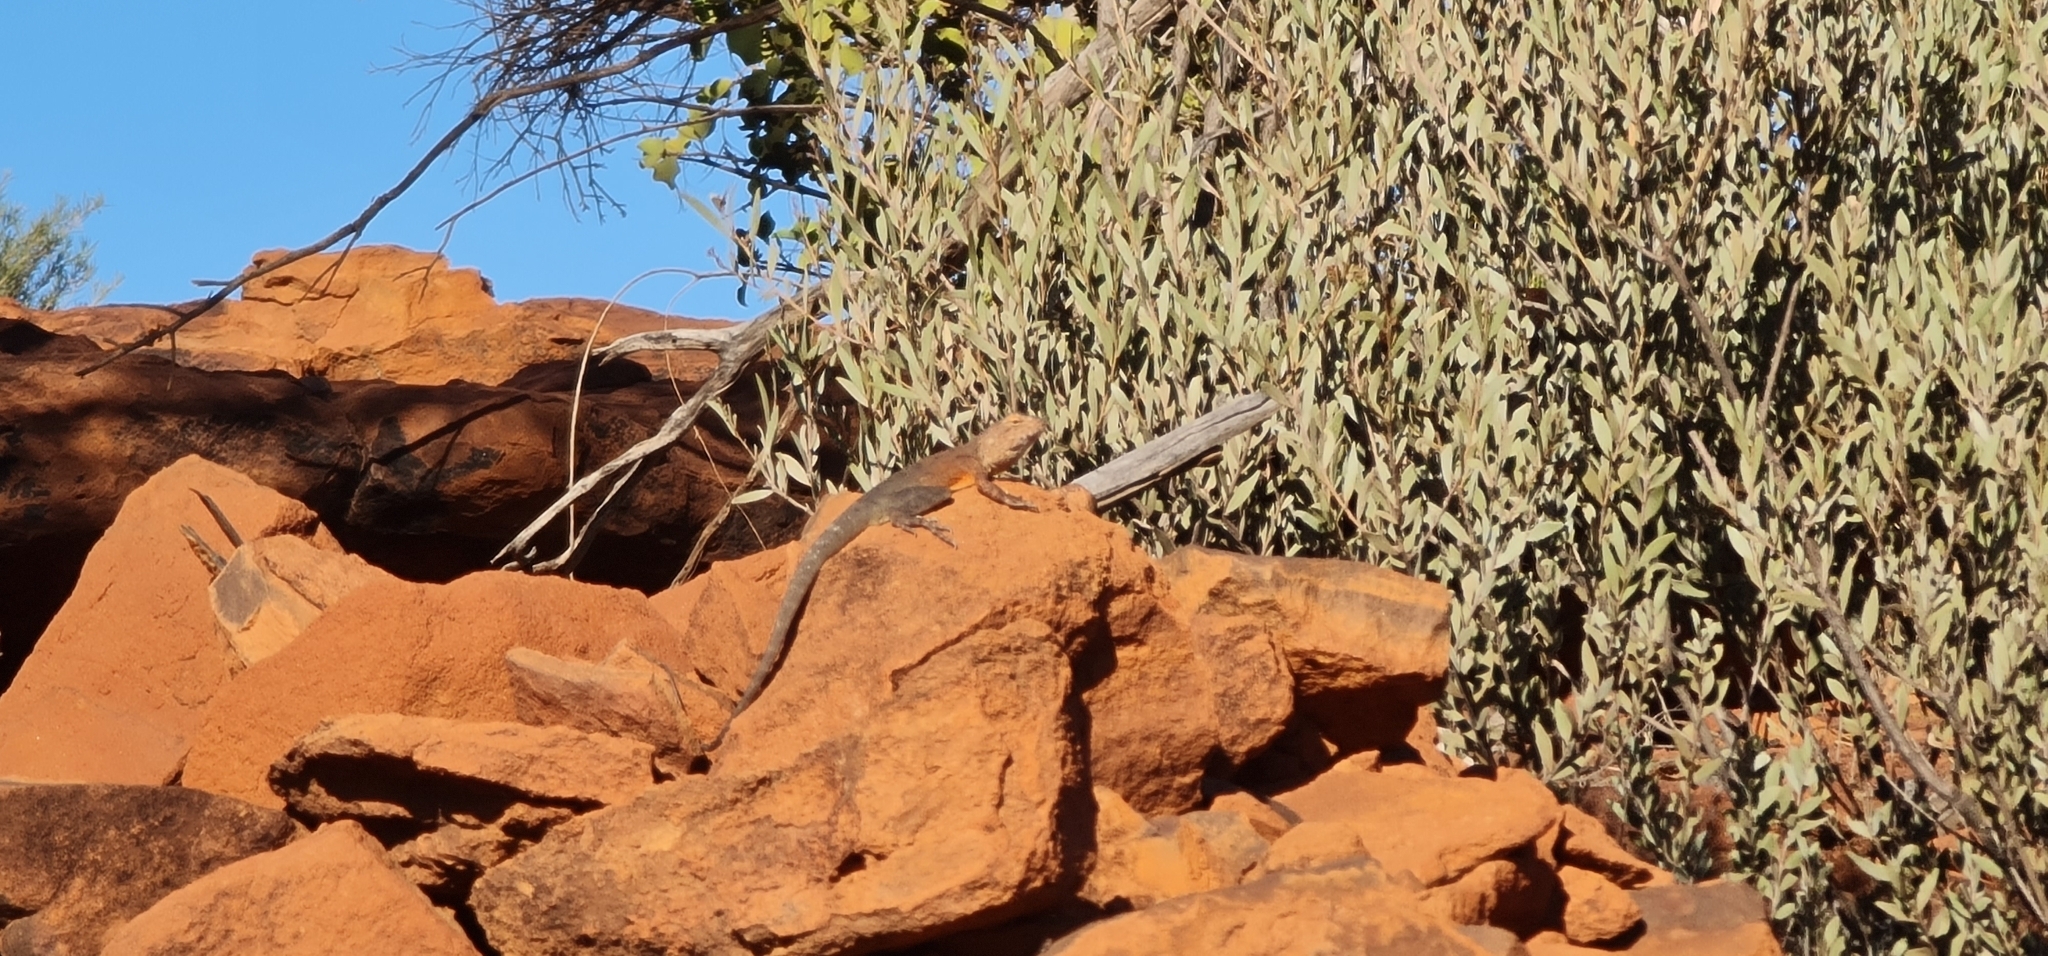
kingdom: Animalia
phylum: Chordata
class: Squamata
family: Agamidae
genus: Ctenophorus
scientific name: Ctenophorus slateri
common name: Slater’s dragon
